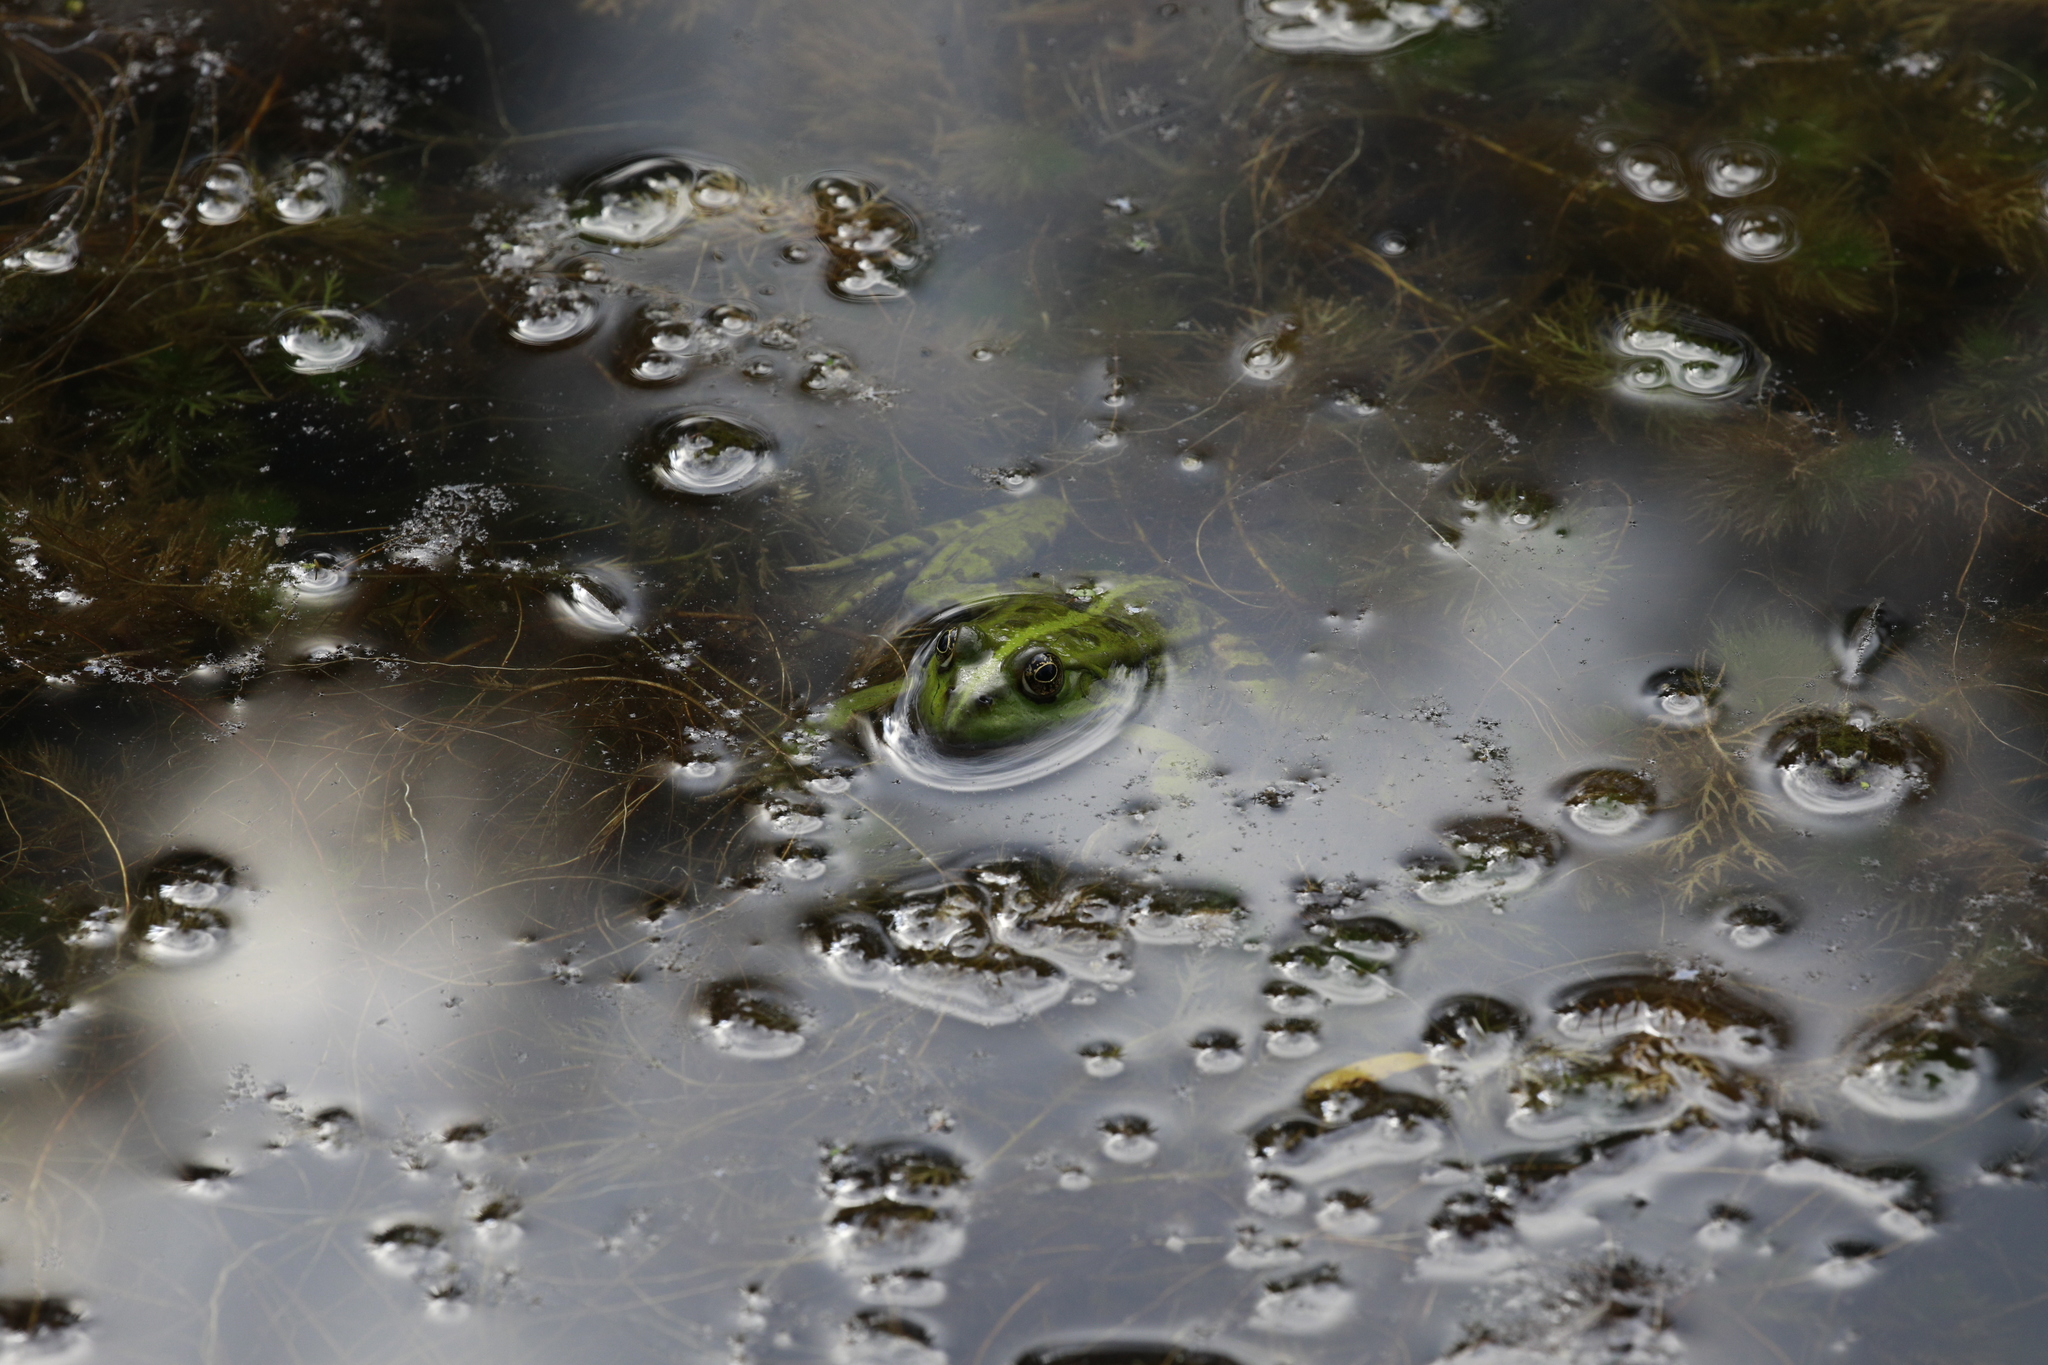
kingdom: Animalia
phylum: Chordata
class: Amphibia
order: Anura
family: Ranidae
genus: Pelophylax
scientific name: Pelophylax lessonae
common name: Pool frog
